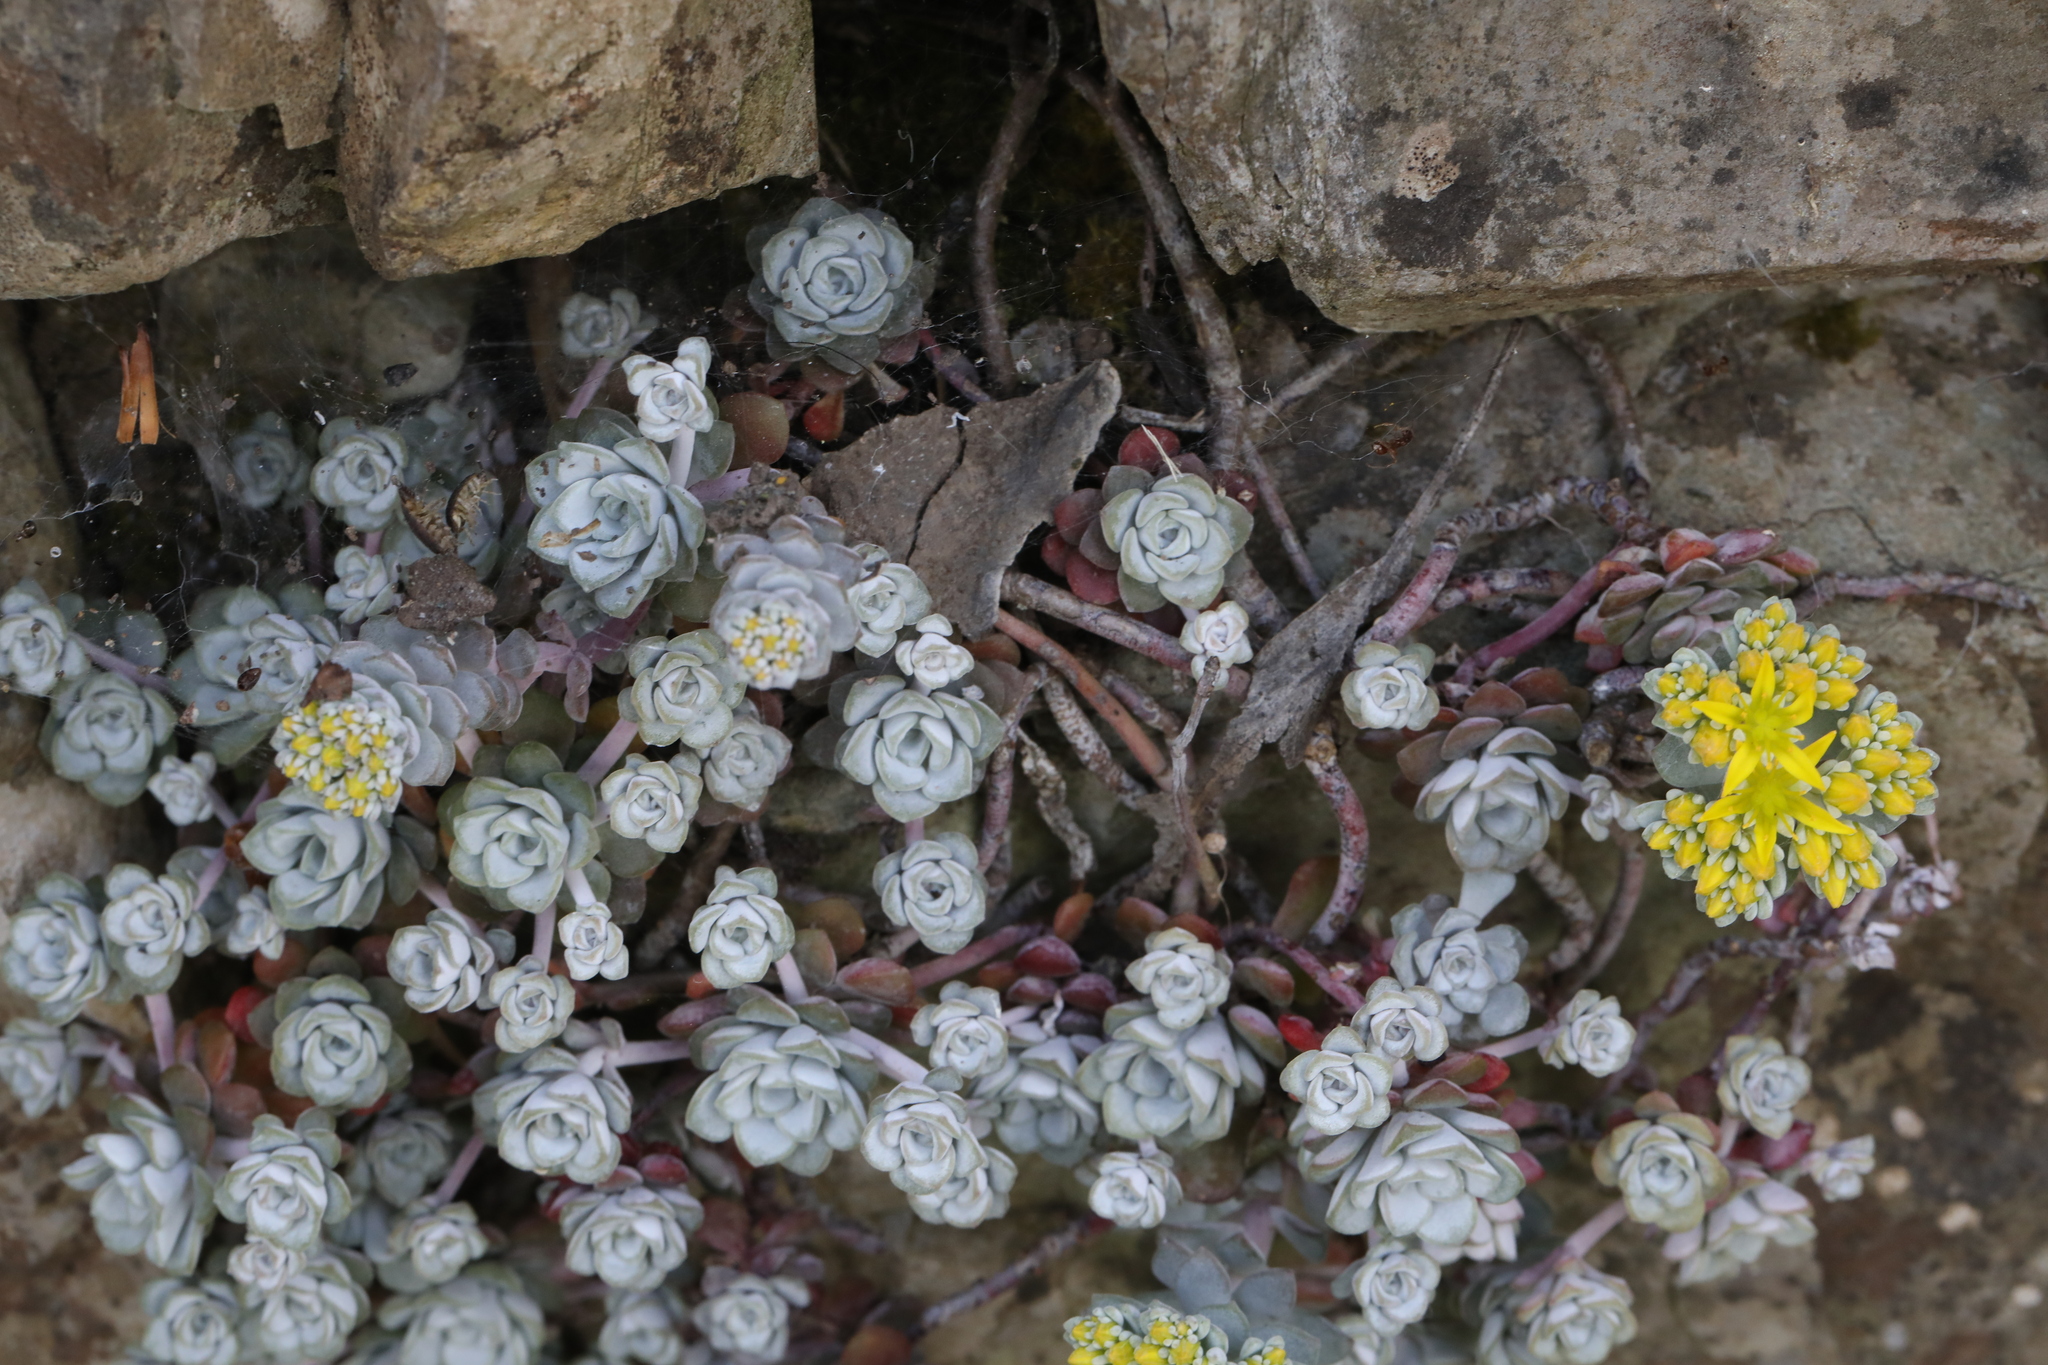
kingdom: Plantae
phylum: Tracheophyta
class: Magnoliopsida
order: Saxifragales
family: Crassulaceae
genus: Sedum
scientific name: Sedum spathulifolium
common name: Colorado stonecrop
